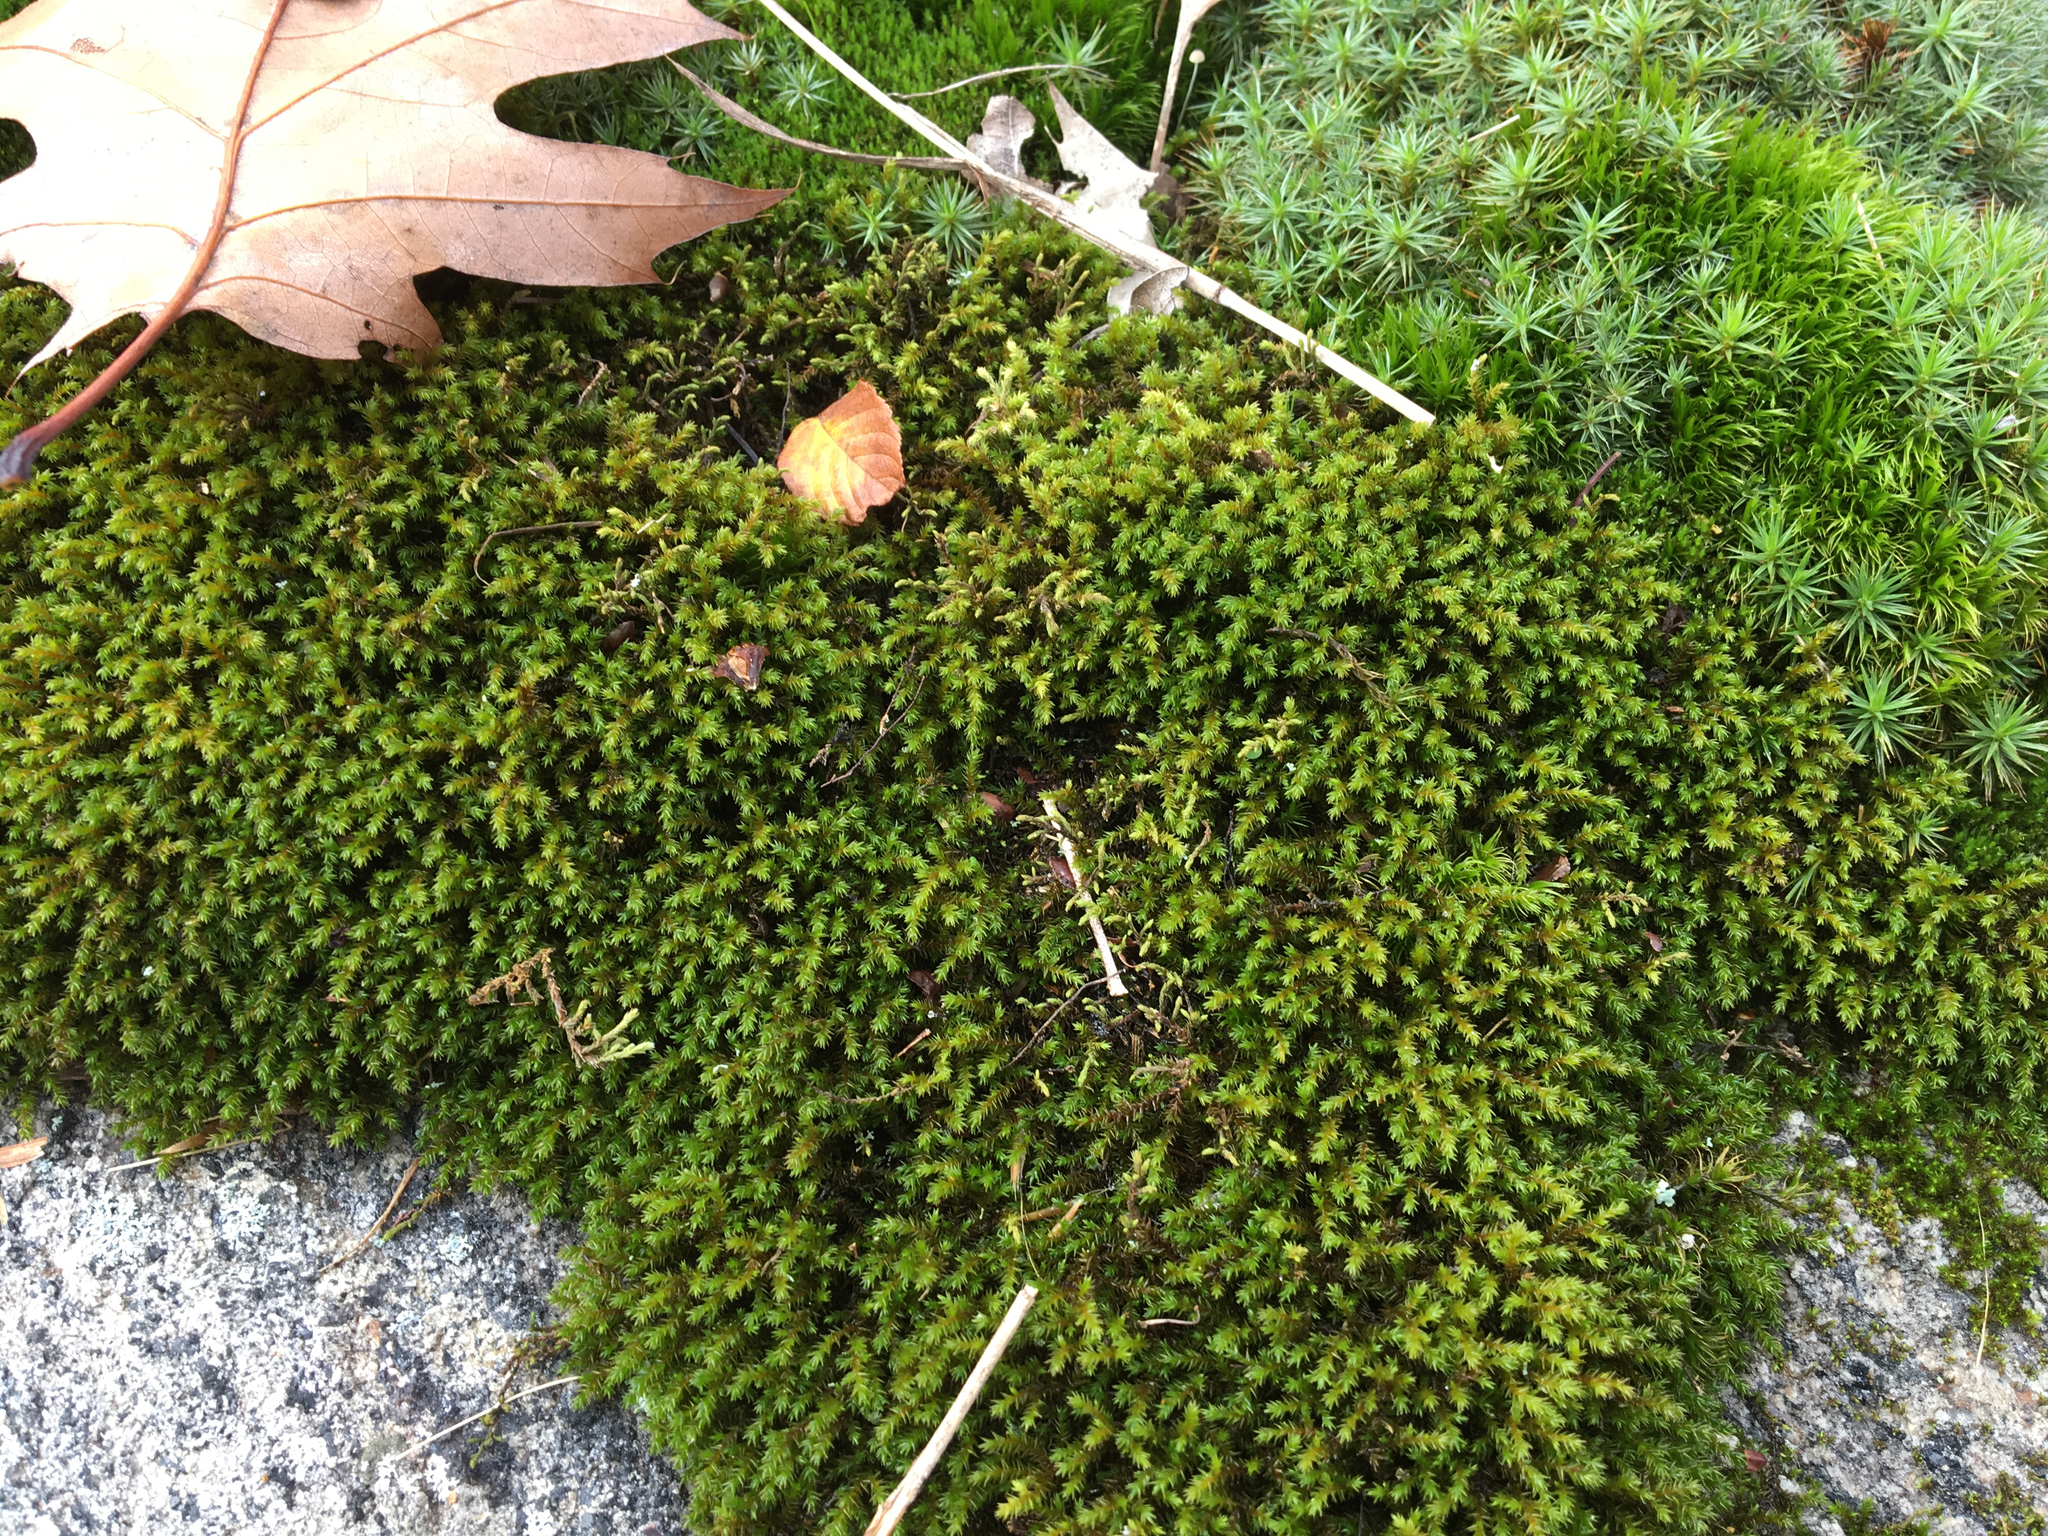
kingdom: Plantae
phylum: Bryophyta
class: Bryopsida
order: Hedwigiales
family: Hedwigiaceae
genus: Hedwigia
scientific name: Hedwigia ciliata
